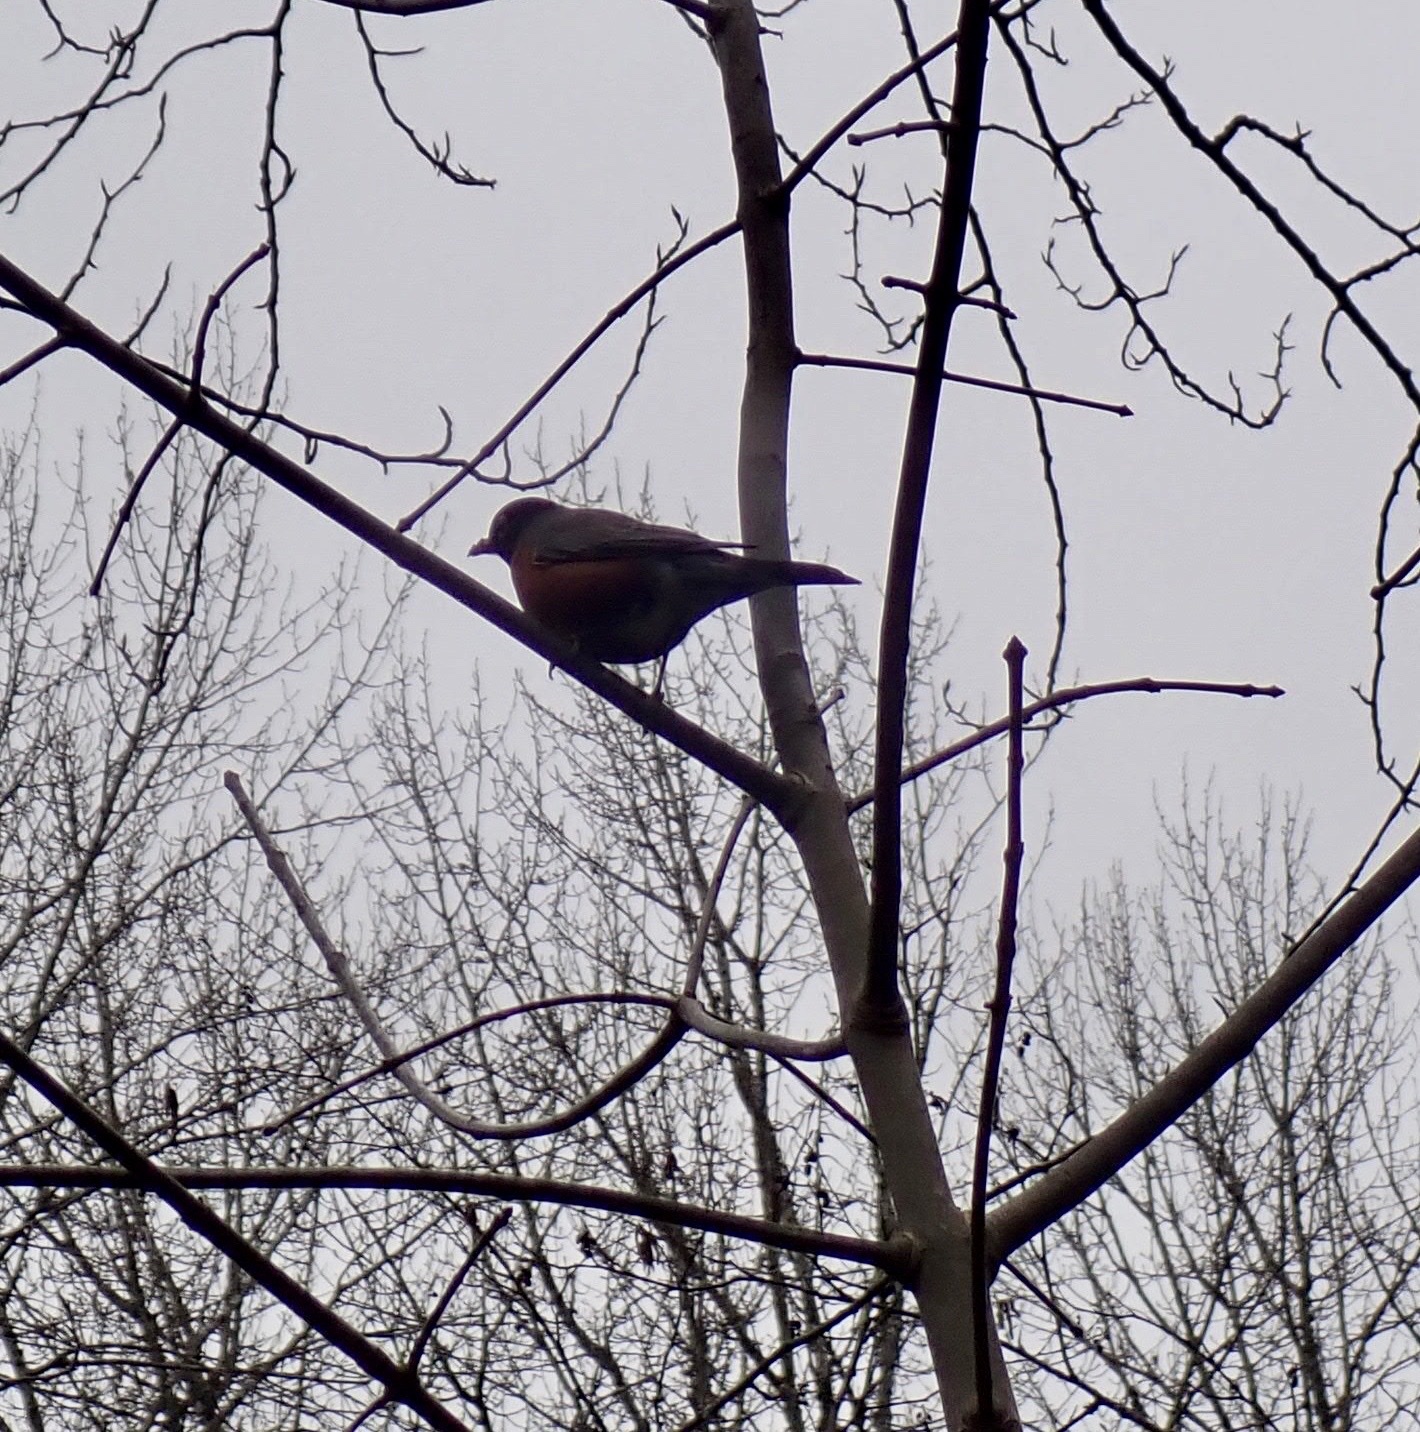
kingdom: Animalia
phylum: Chordata
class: Aves
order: Passeriformes
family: Turdidae
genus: Turdus
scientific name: Turdus migratorius
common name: American robin
